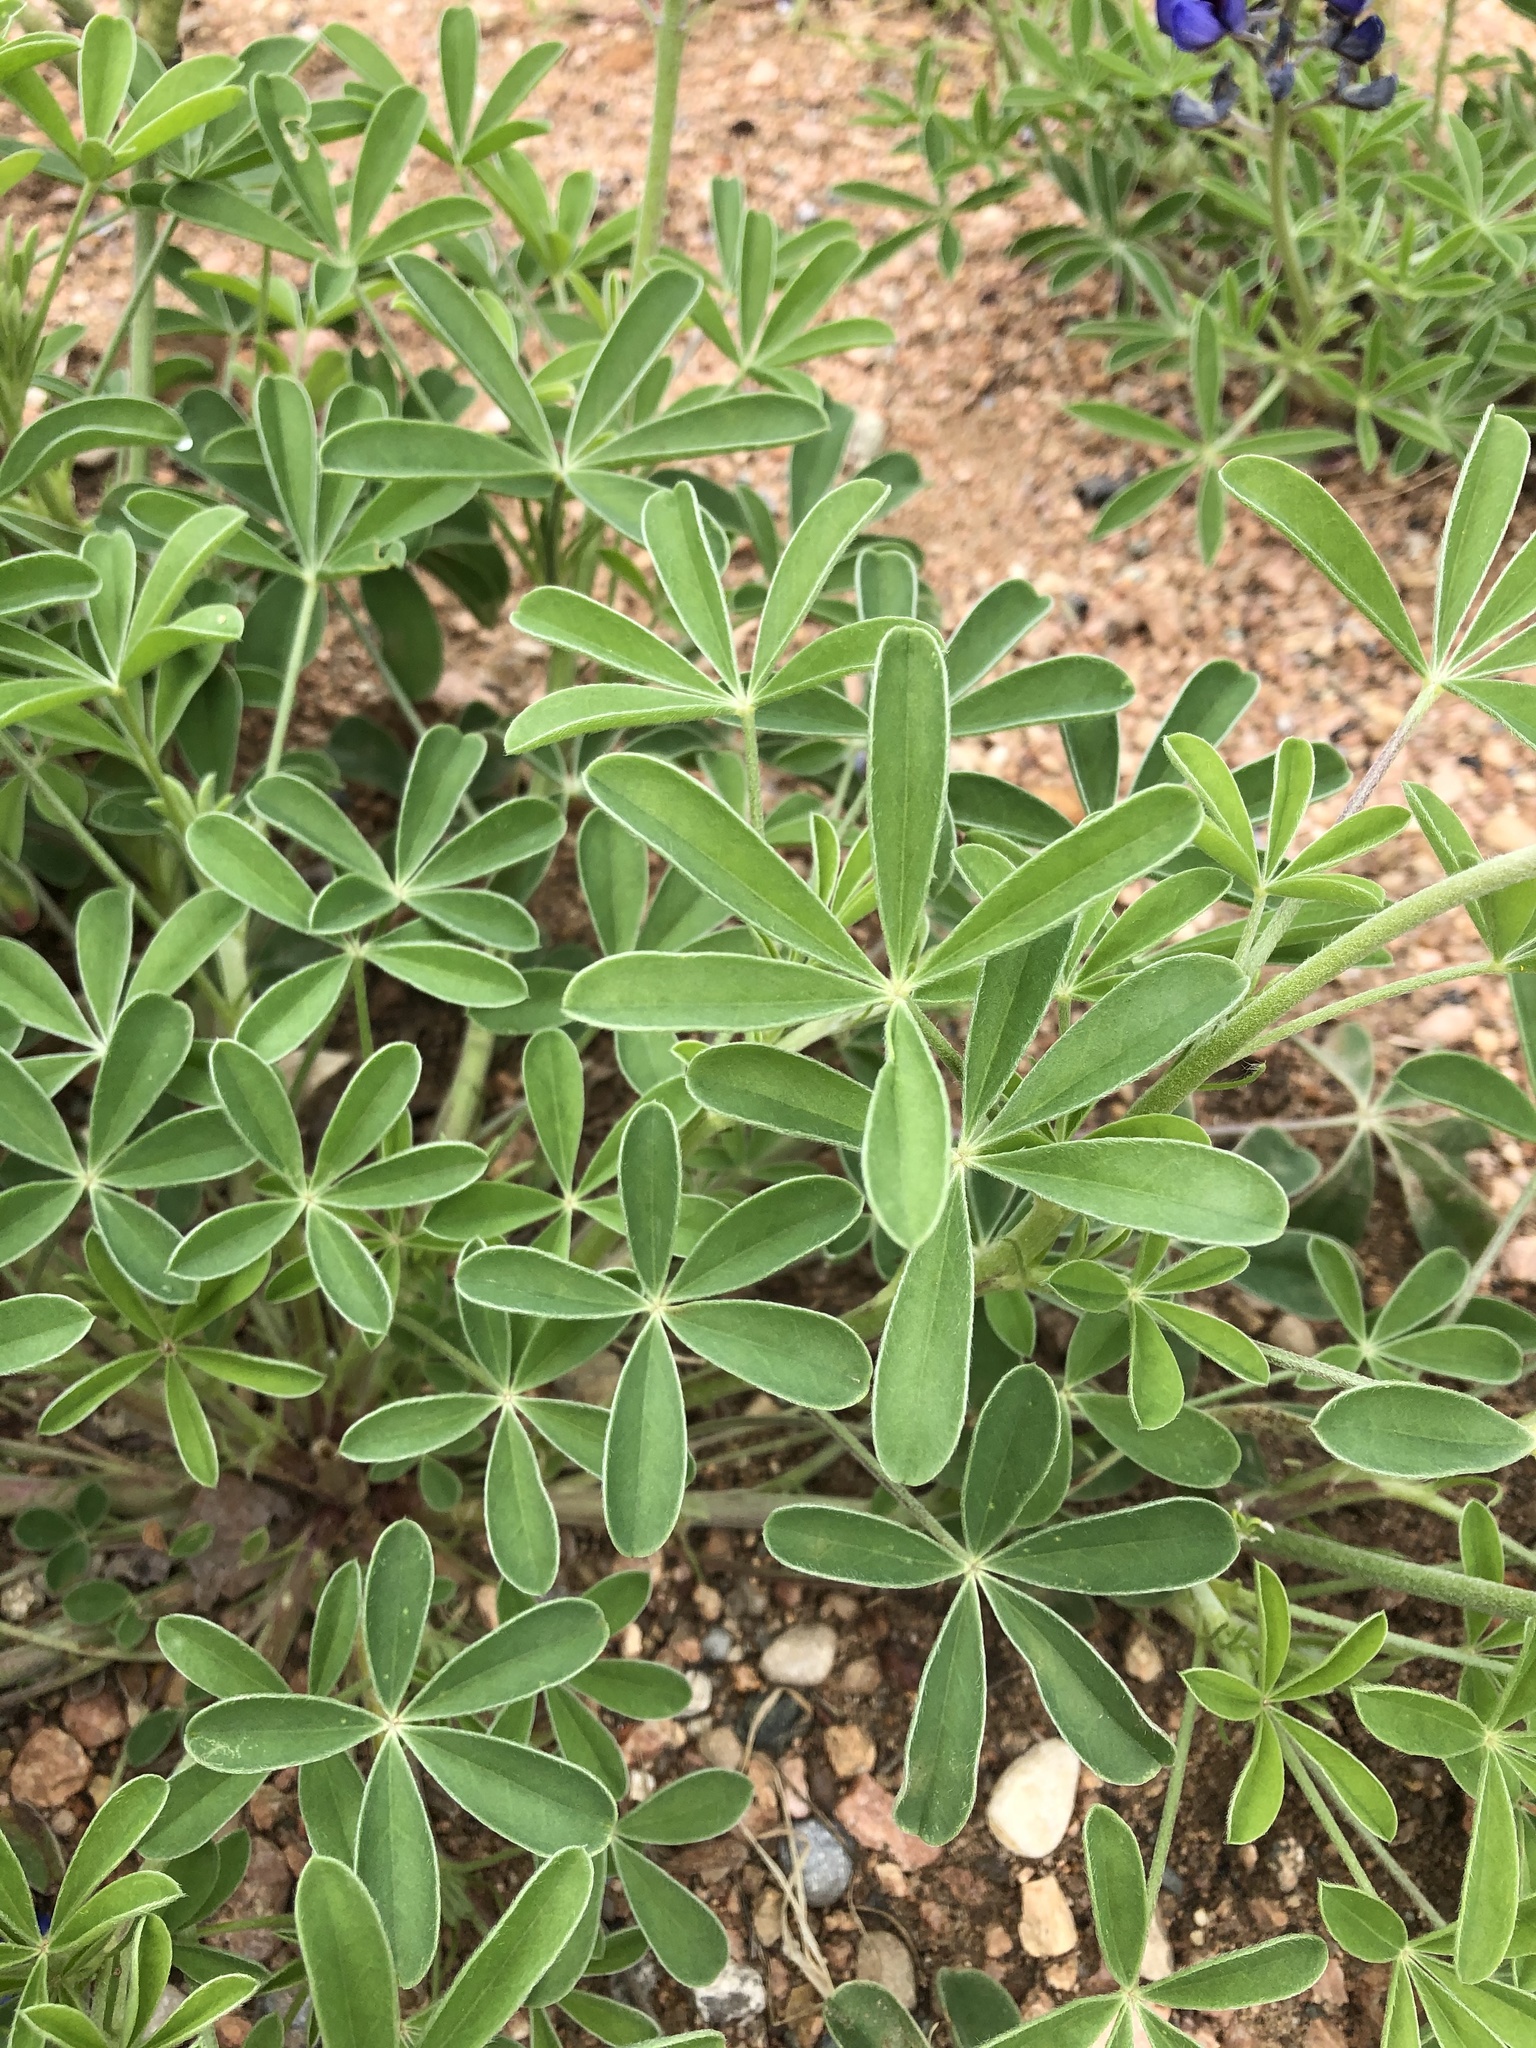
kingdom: Plantae
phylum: Tracheophyta
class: Magnoliopsida
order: Fabales
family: Fabaceae
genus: Lupinus
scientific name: Lupinus texensis
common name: Texas bluebonnet
